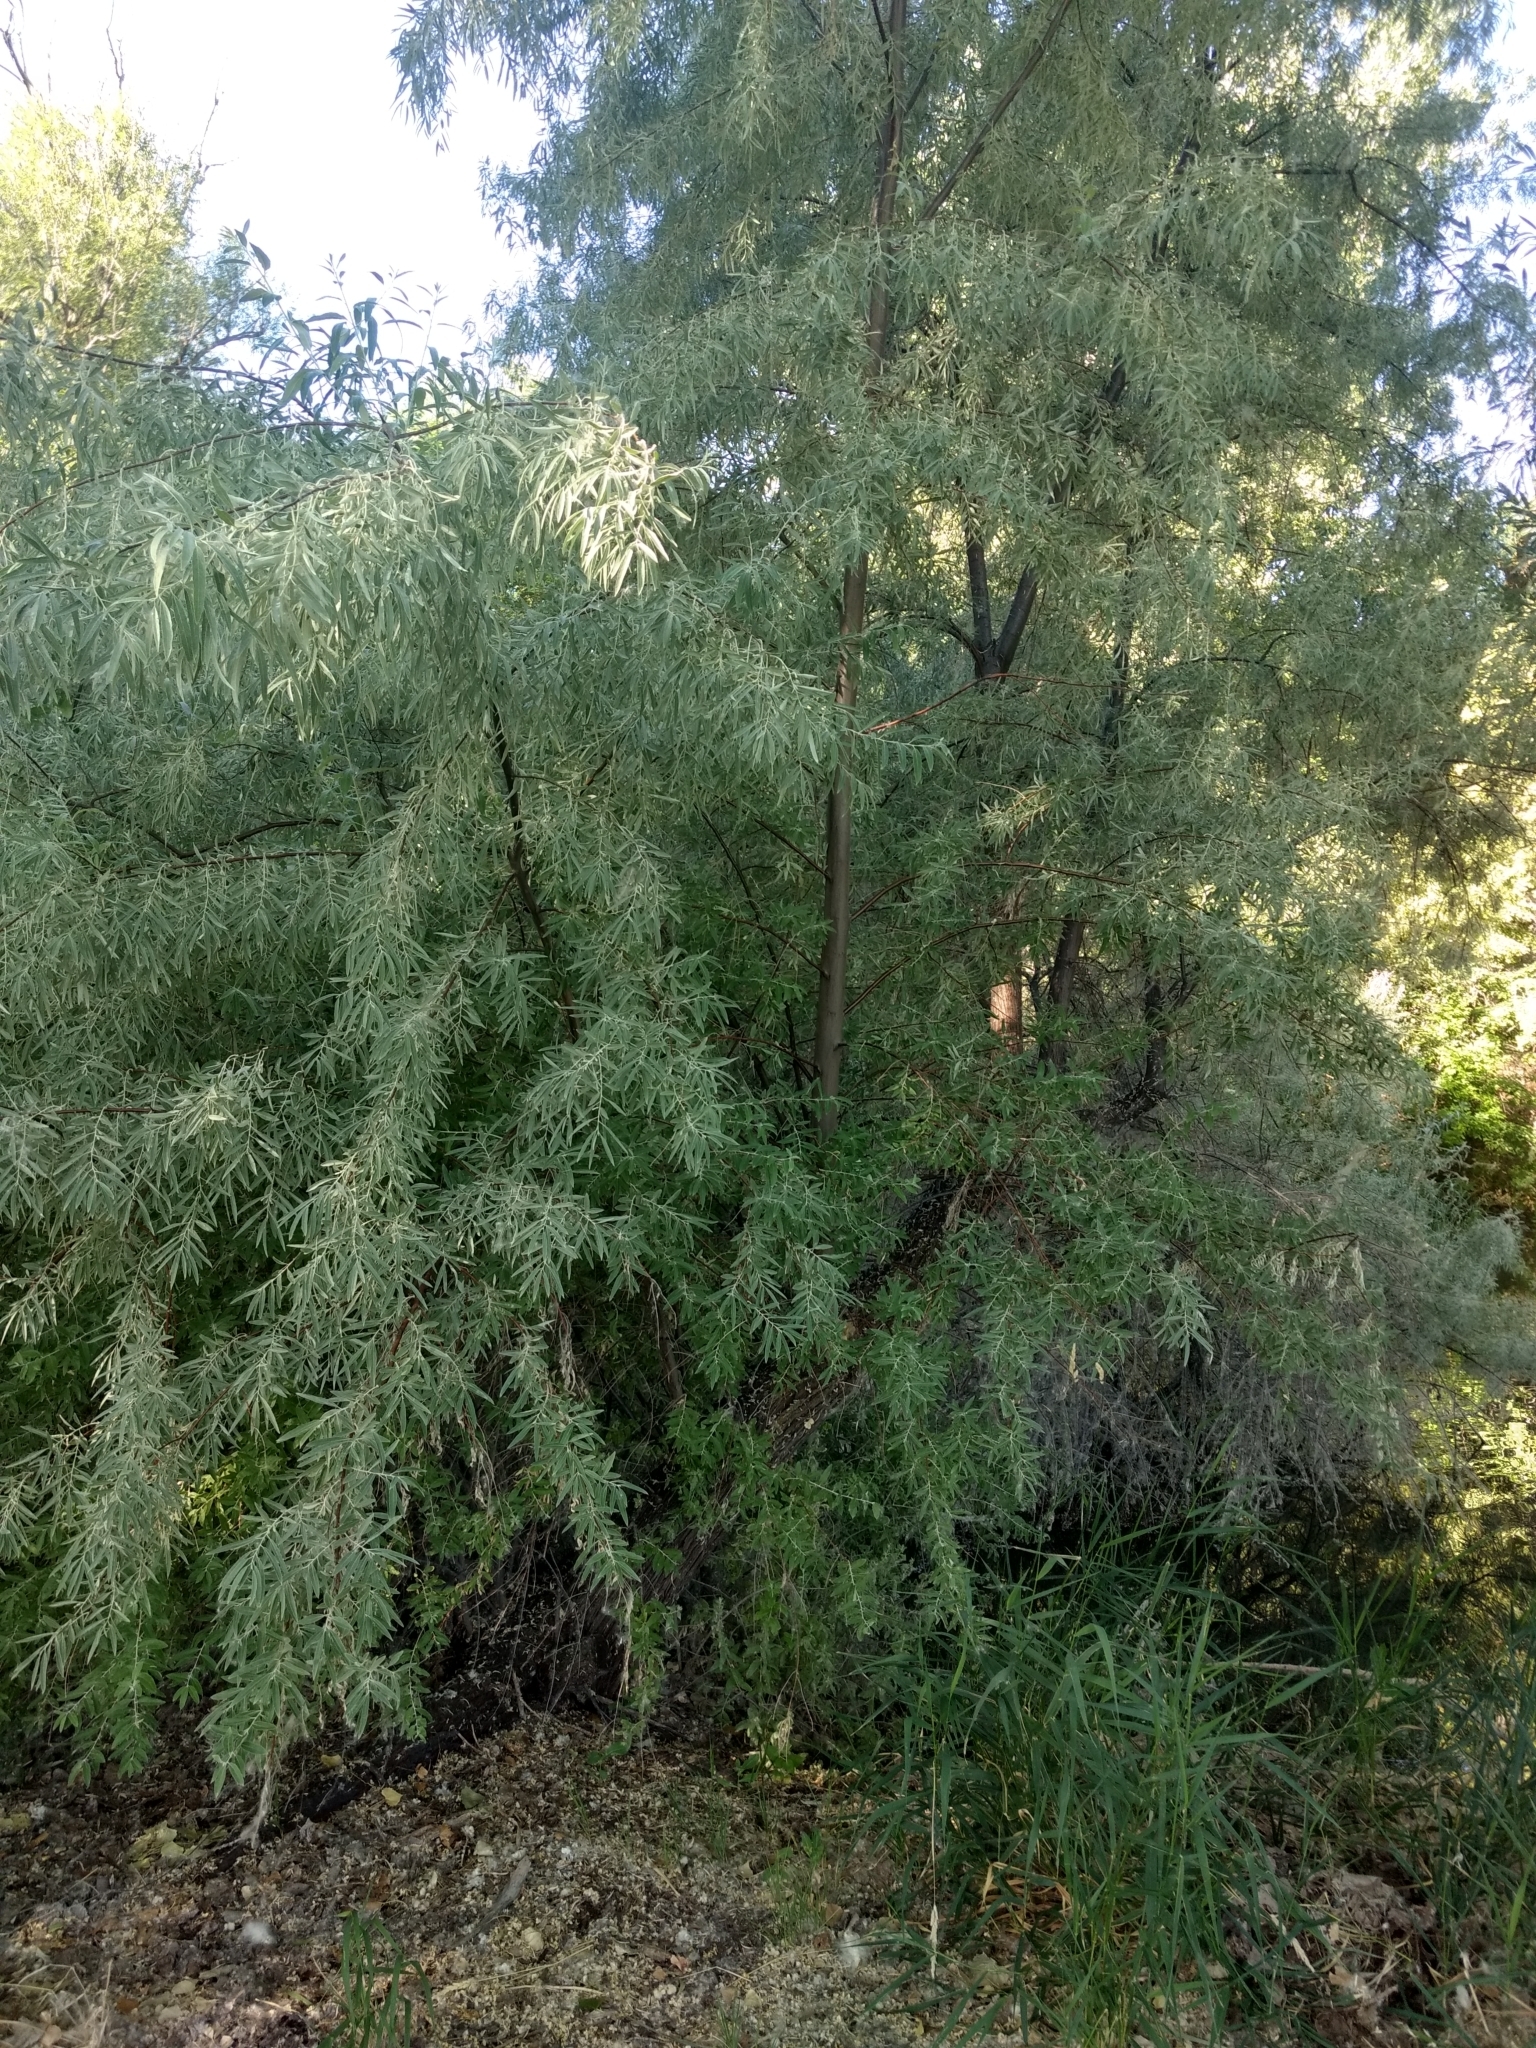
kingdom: Plantae
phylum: Tracheophyta
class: Magnoliopsida
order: Rosales
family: Elaeagnaceae
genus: Elaeagnus
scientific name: Elaeagnus angustifolia
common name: Russian olive
